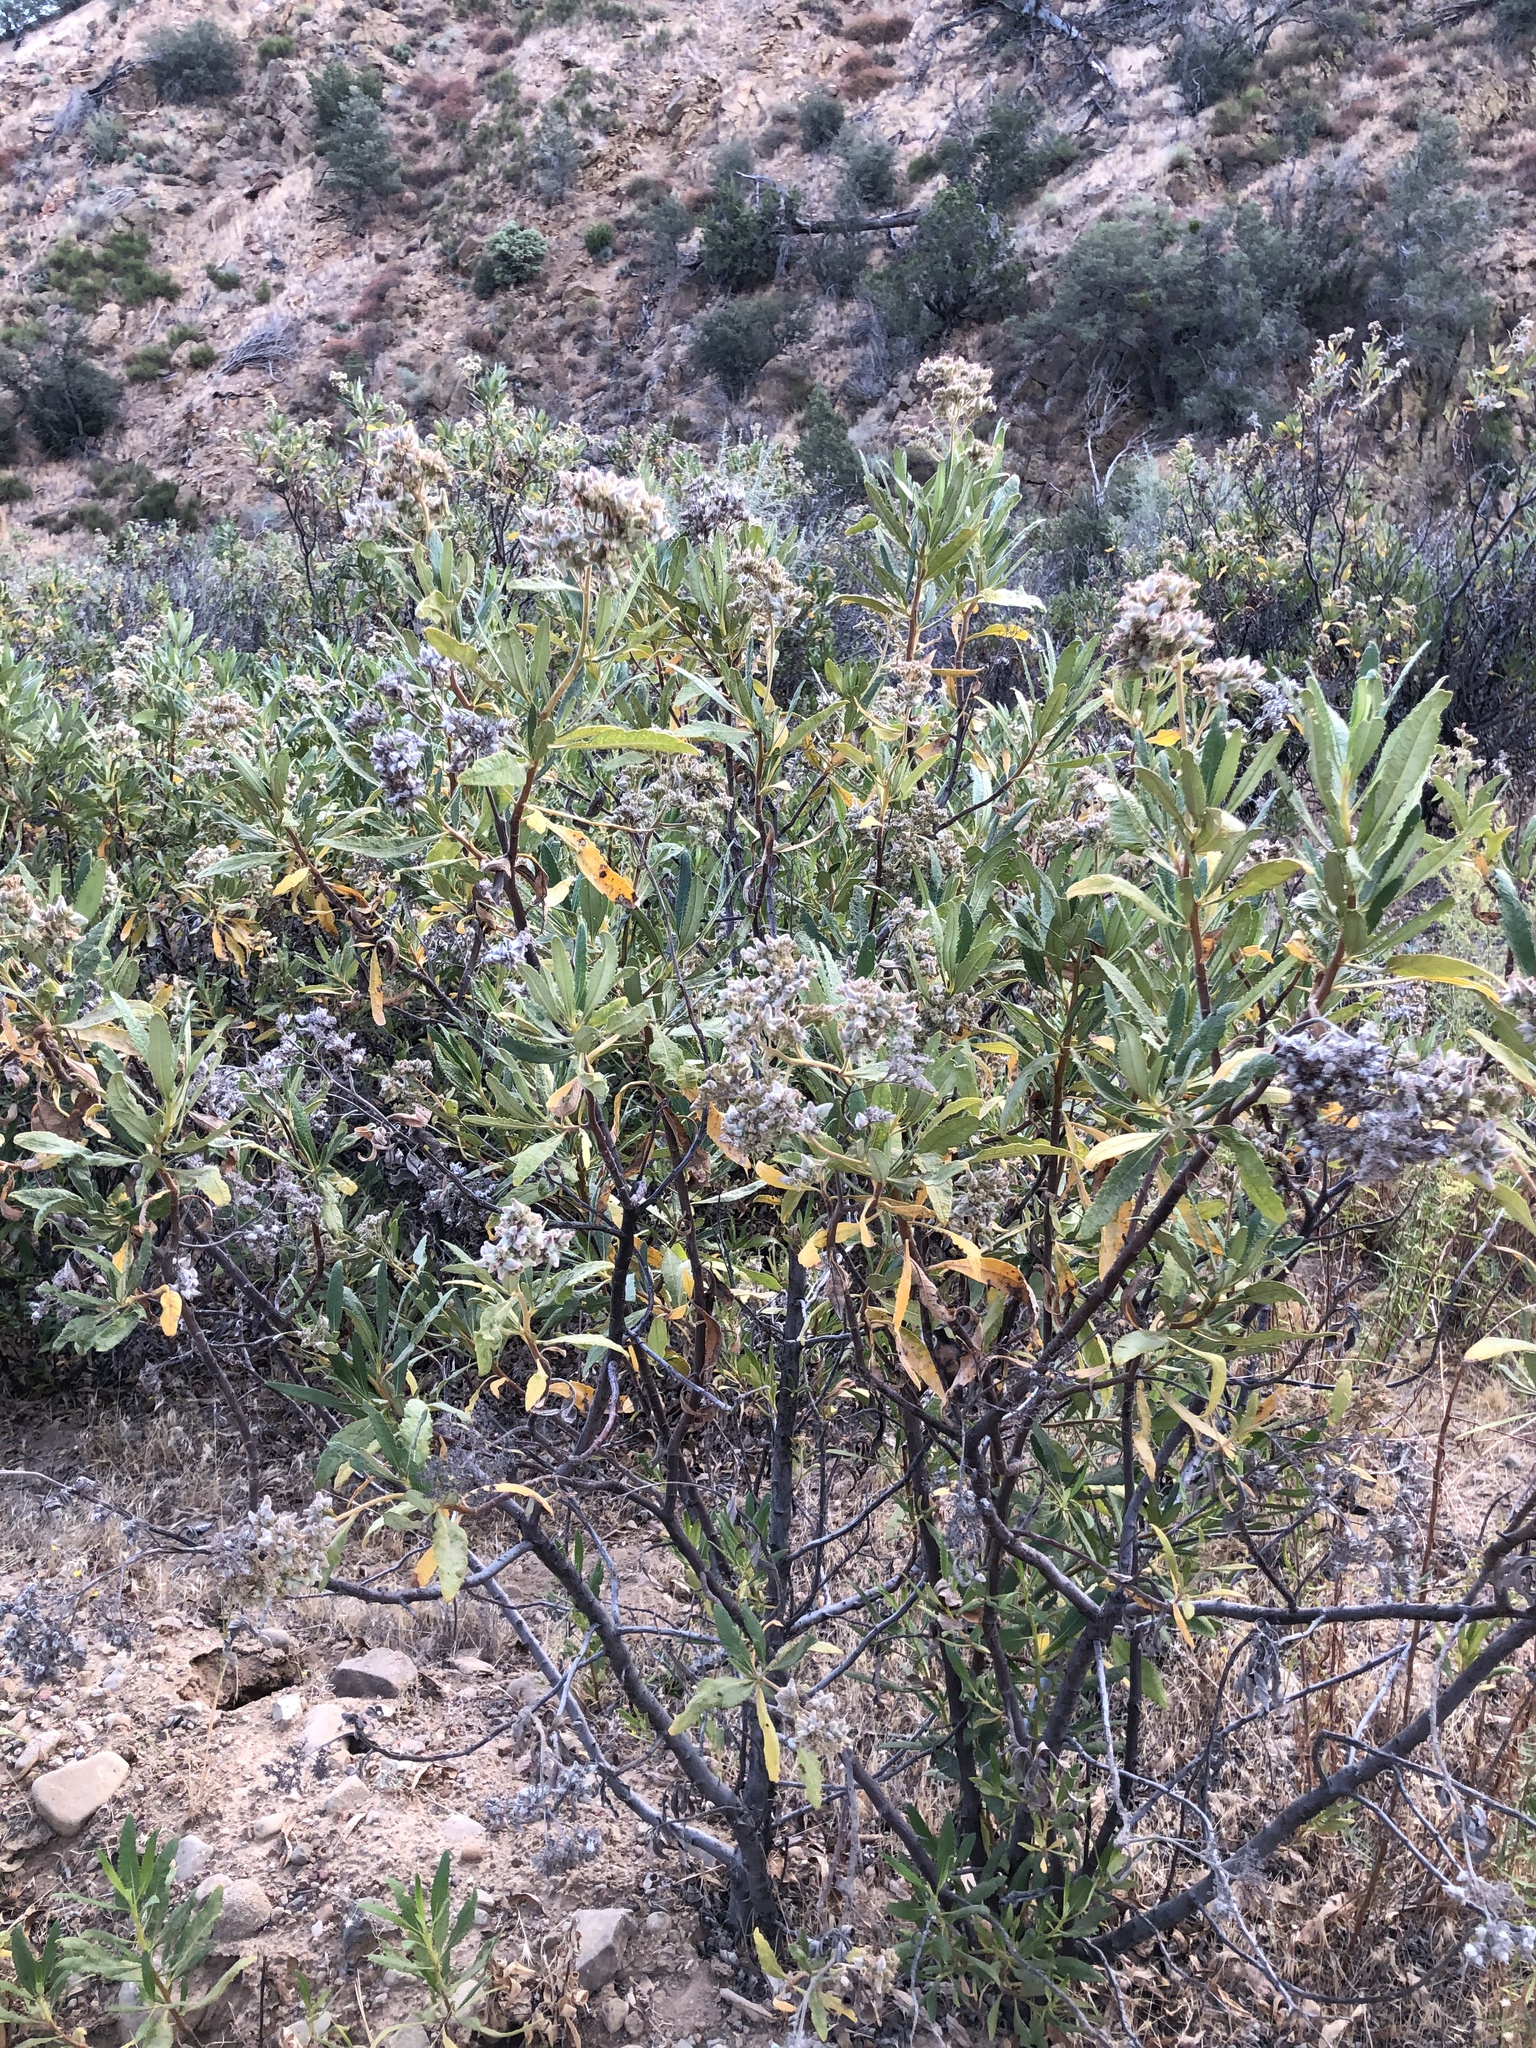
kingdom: Plantae
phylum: Tracheophyta
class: Magnoliopsida
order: Boraginales
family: Namaceae
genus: Eriodictyon
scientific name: Eriodictyon crassifolium
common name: Thick-leaf yerba-santa
